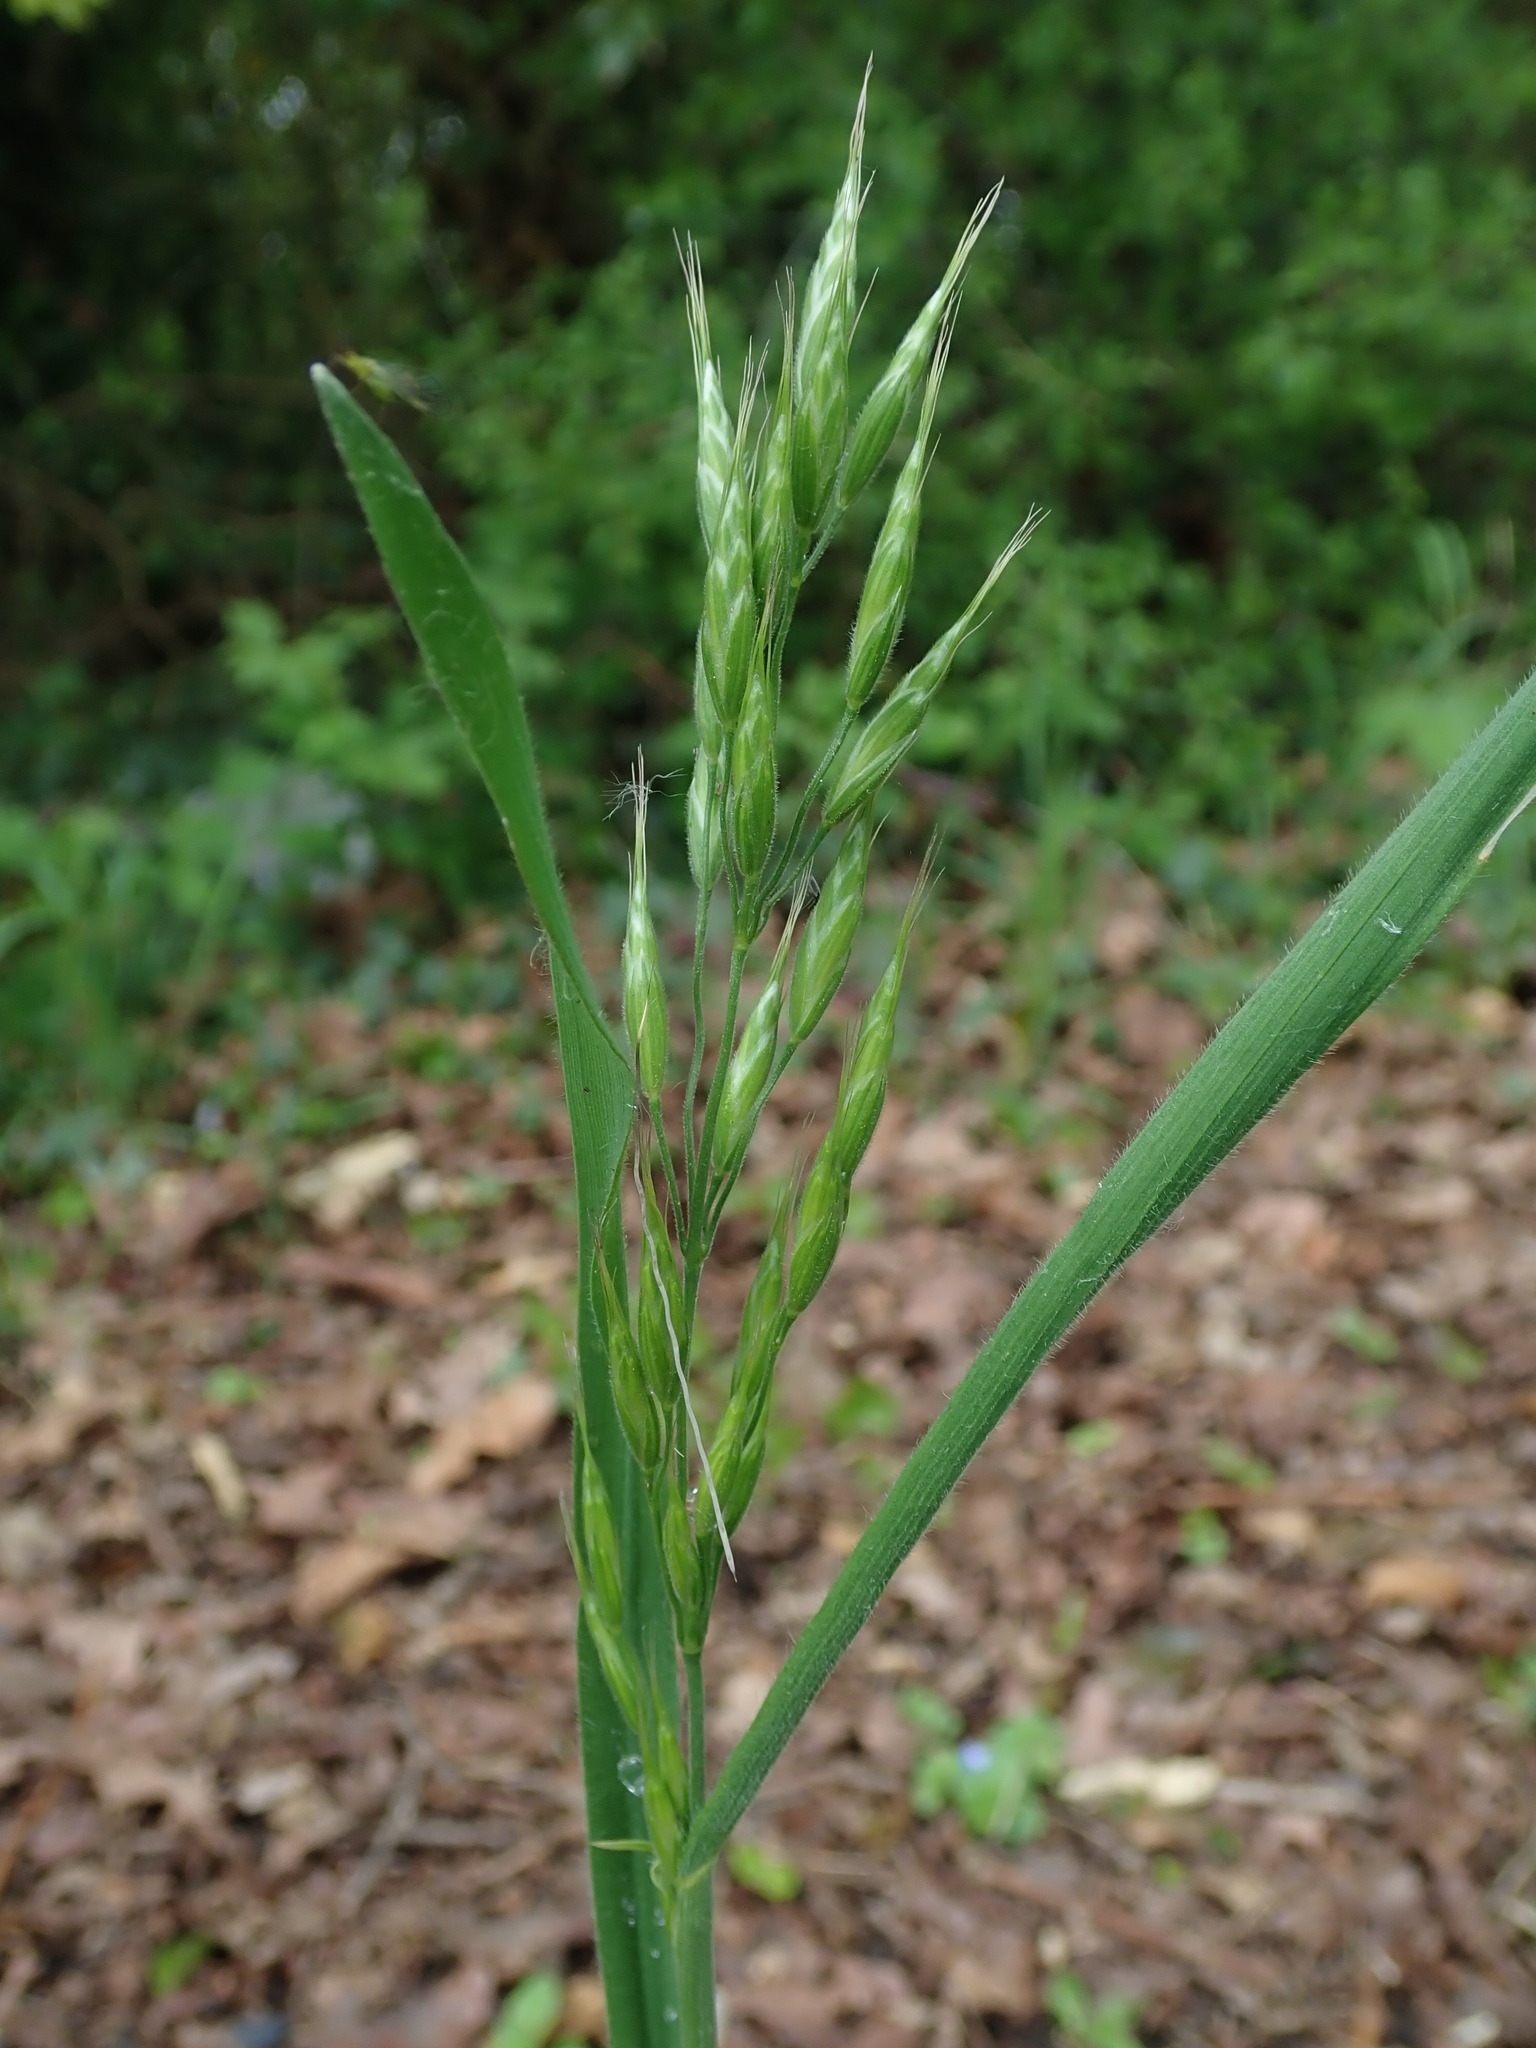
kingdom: Plantae
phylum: Tracheophyta
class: Liliopsida
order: Poales
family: Poaceae
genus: Bromus
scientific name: Bromus hordeaceus
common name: Soft brome
